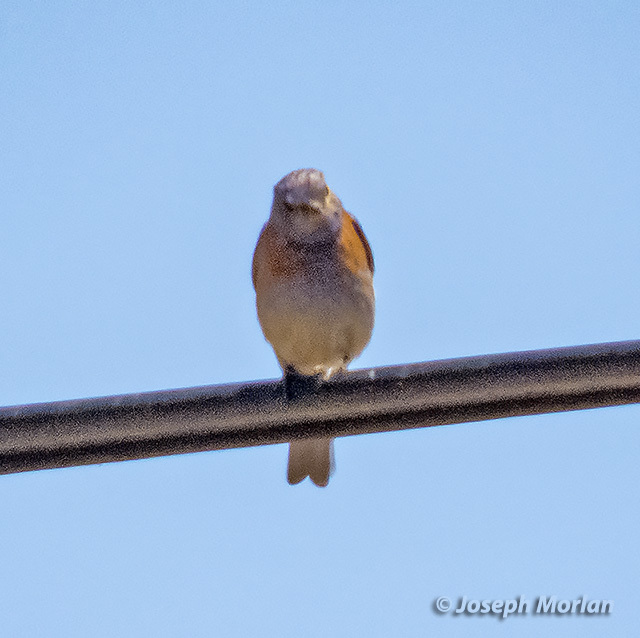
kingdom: Animalia
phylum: Chordata
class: Aves
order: Passeriformes
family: Turdidae
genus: Sialia
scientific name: Sialia mexicana
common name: Western bluebird
